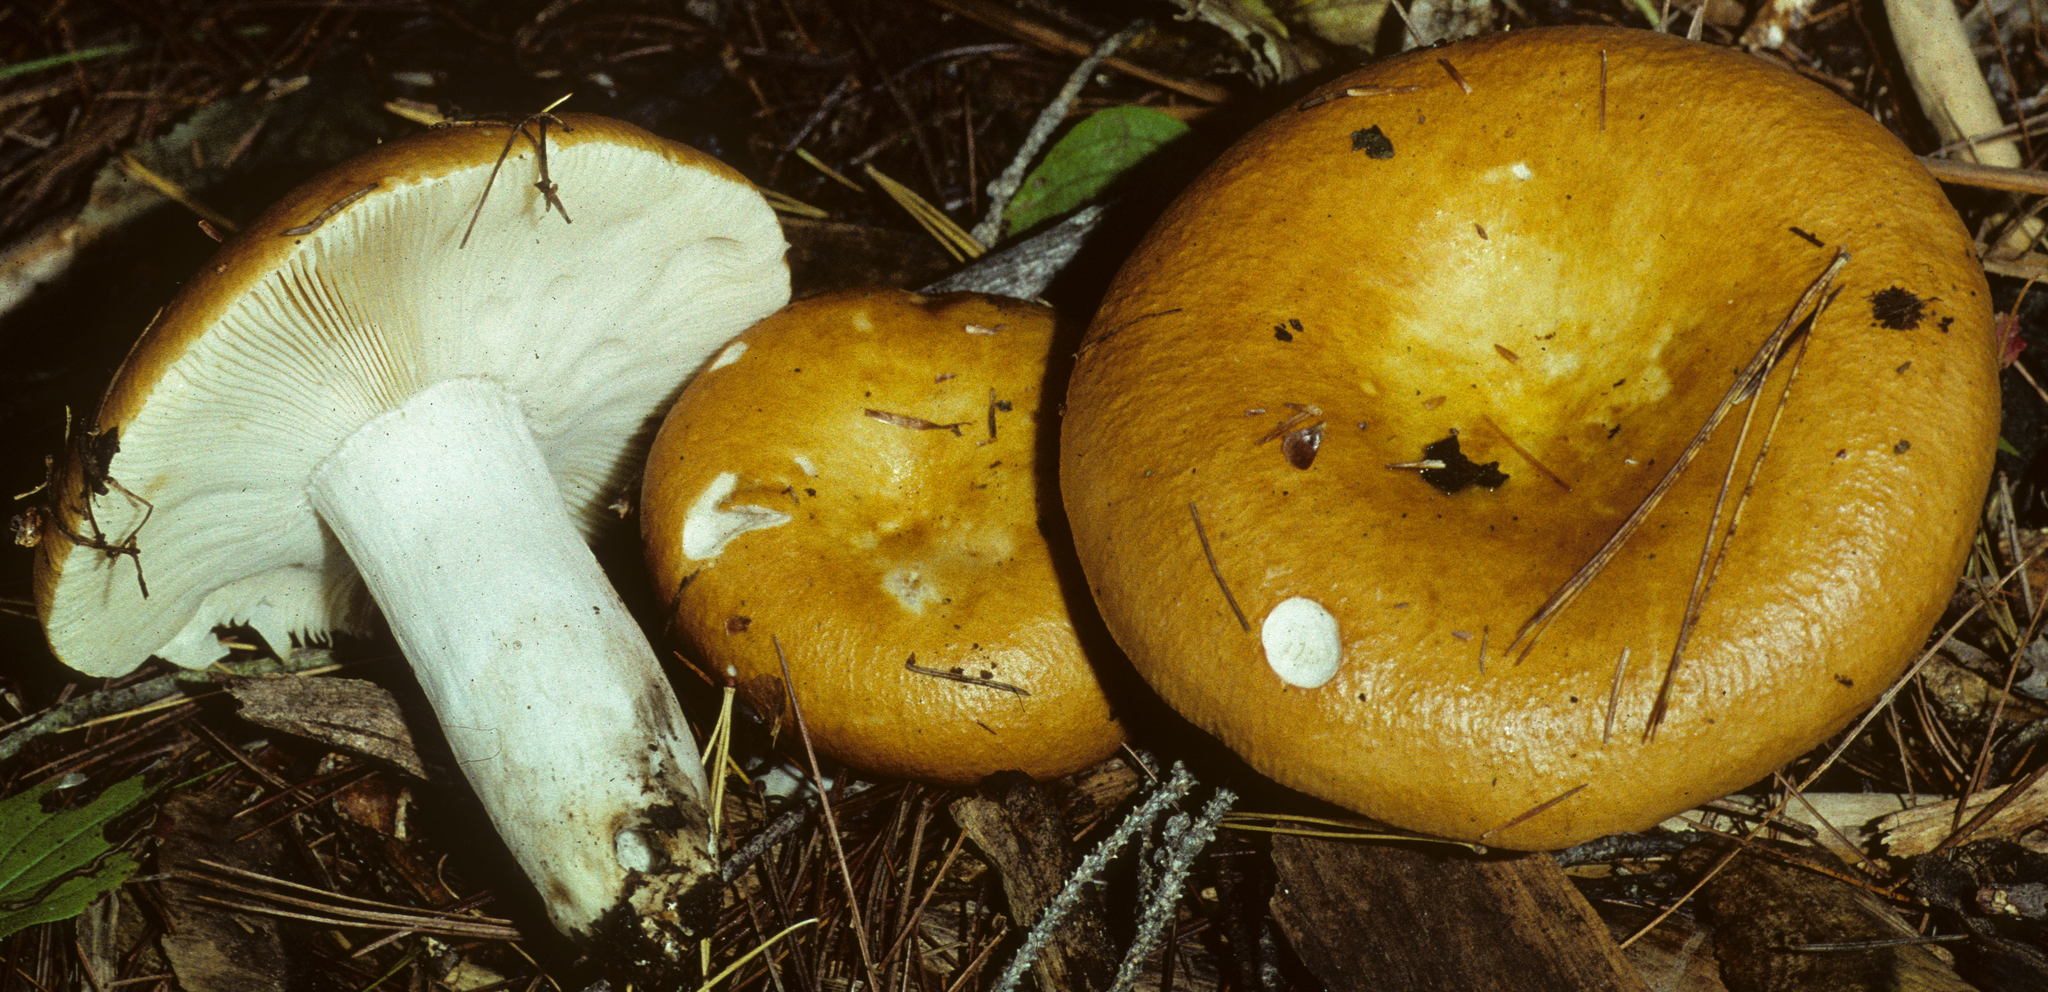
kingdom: Fungi
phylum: Basidiomycota
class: Agaricomycetes
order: Russulales
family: Russulaceae
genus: Russula
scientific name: Russula decolorans
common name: Copper brittlegill
